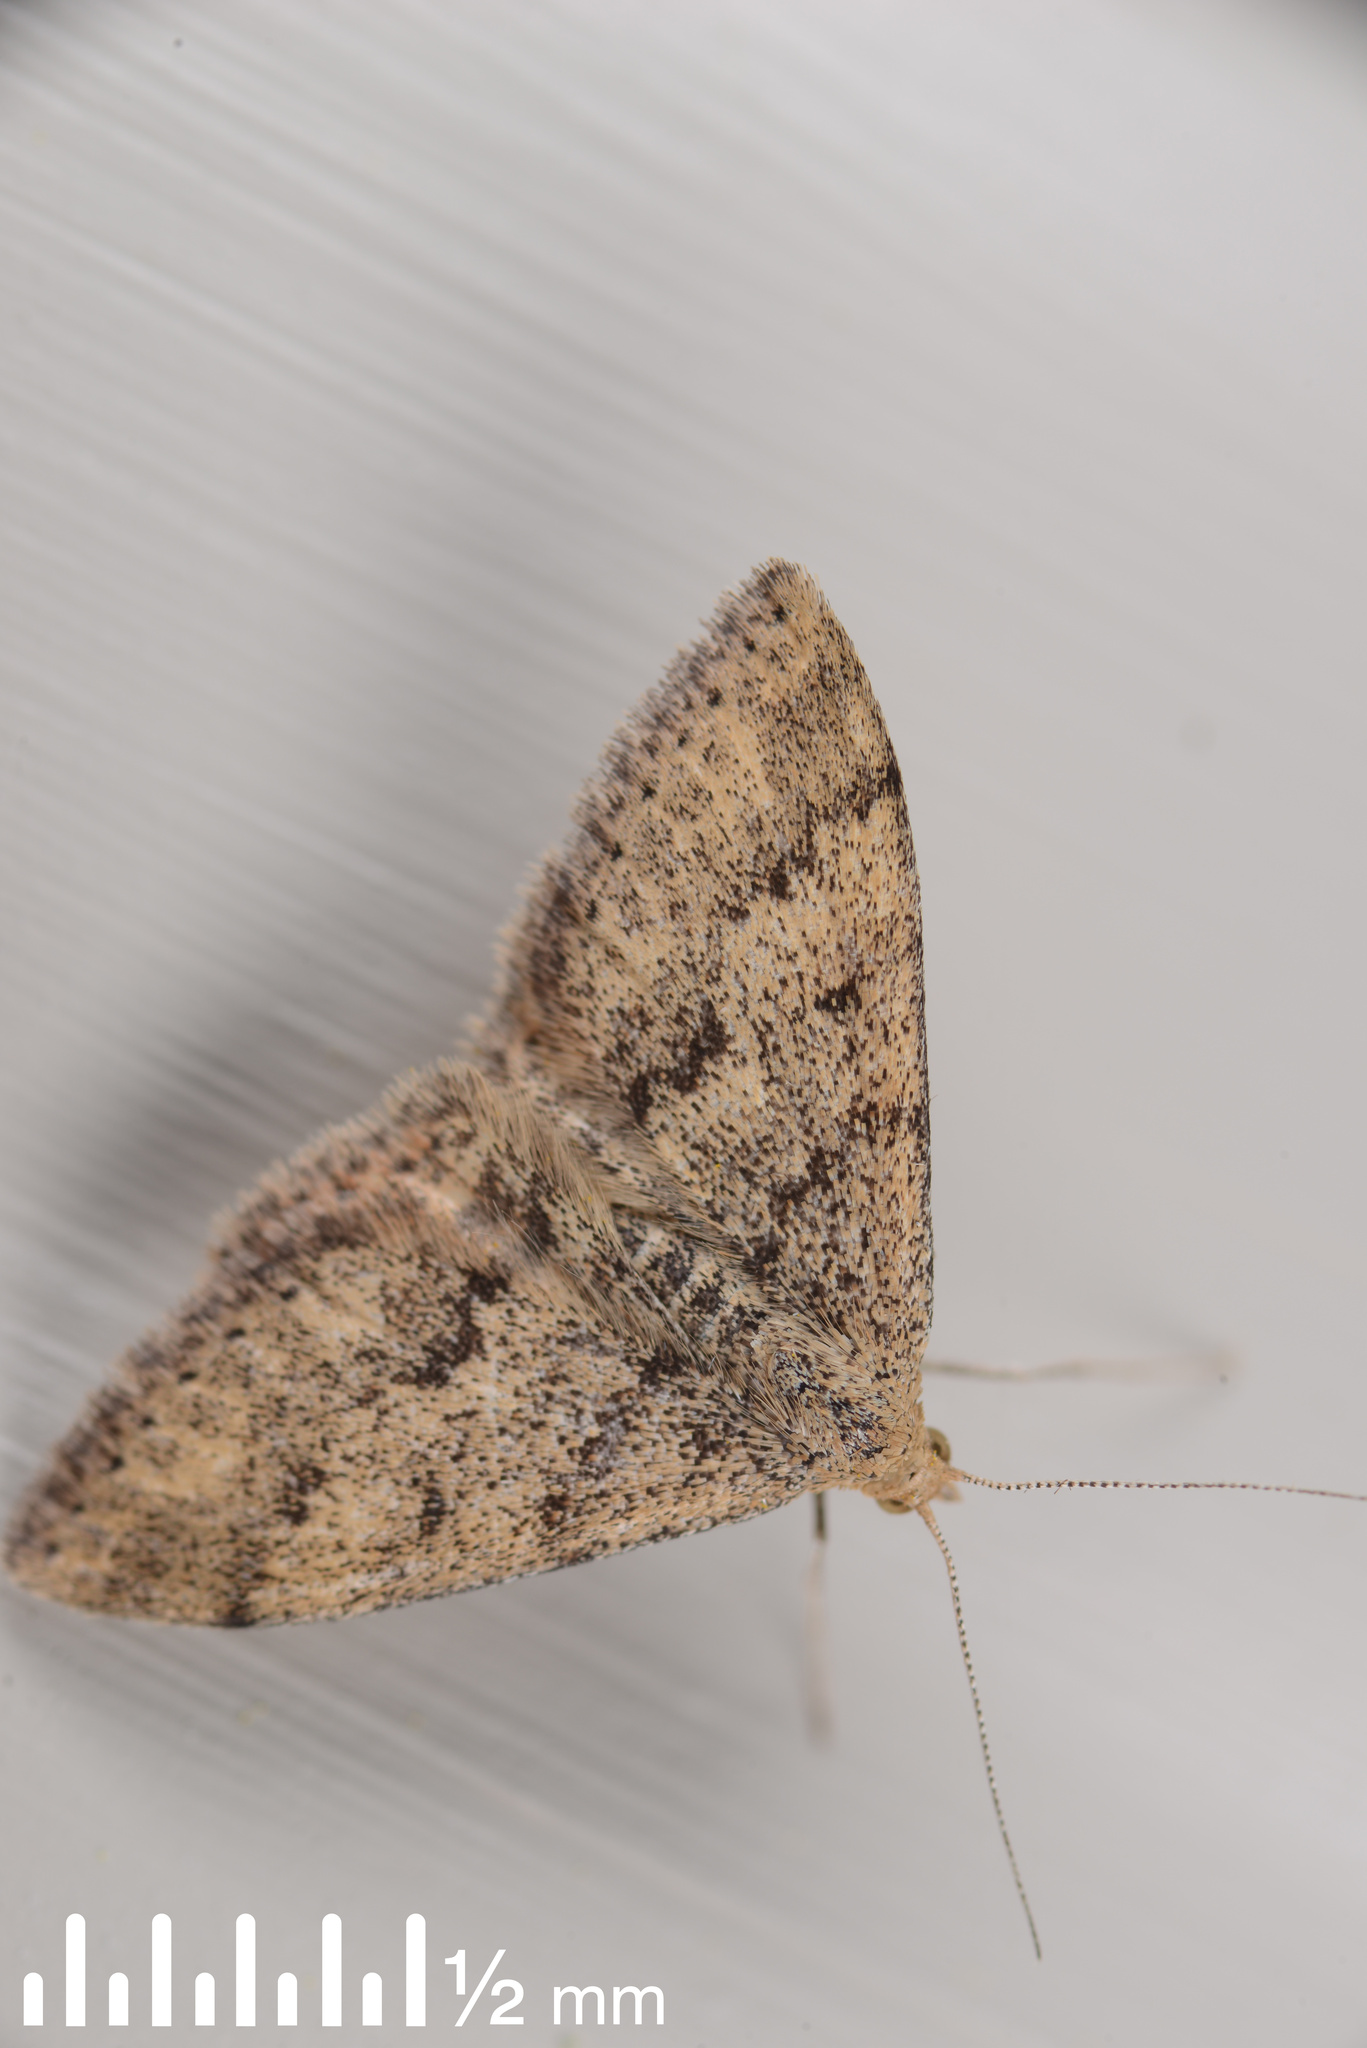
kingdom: Animalia
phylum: Arthropoda
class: Insecta
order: Lepidoptera
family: Geometridae
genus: Scopula
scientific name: Scopula rubraria
